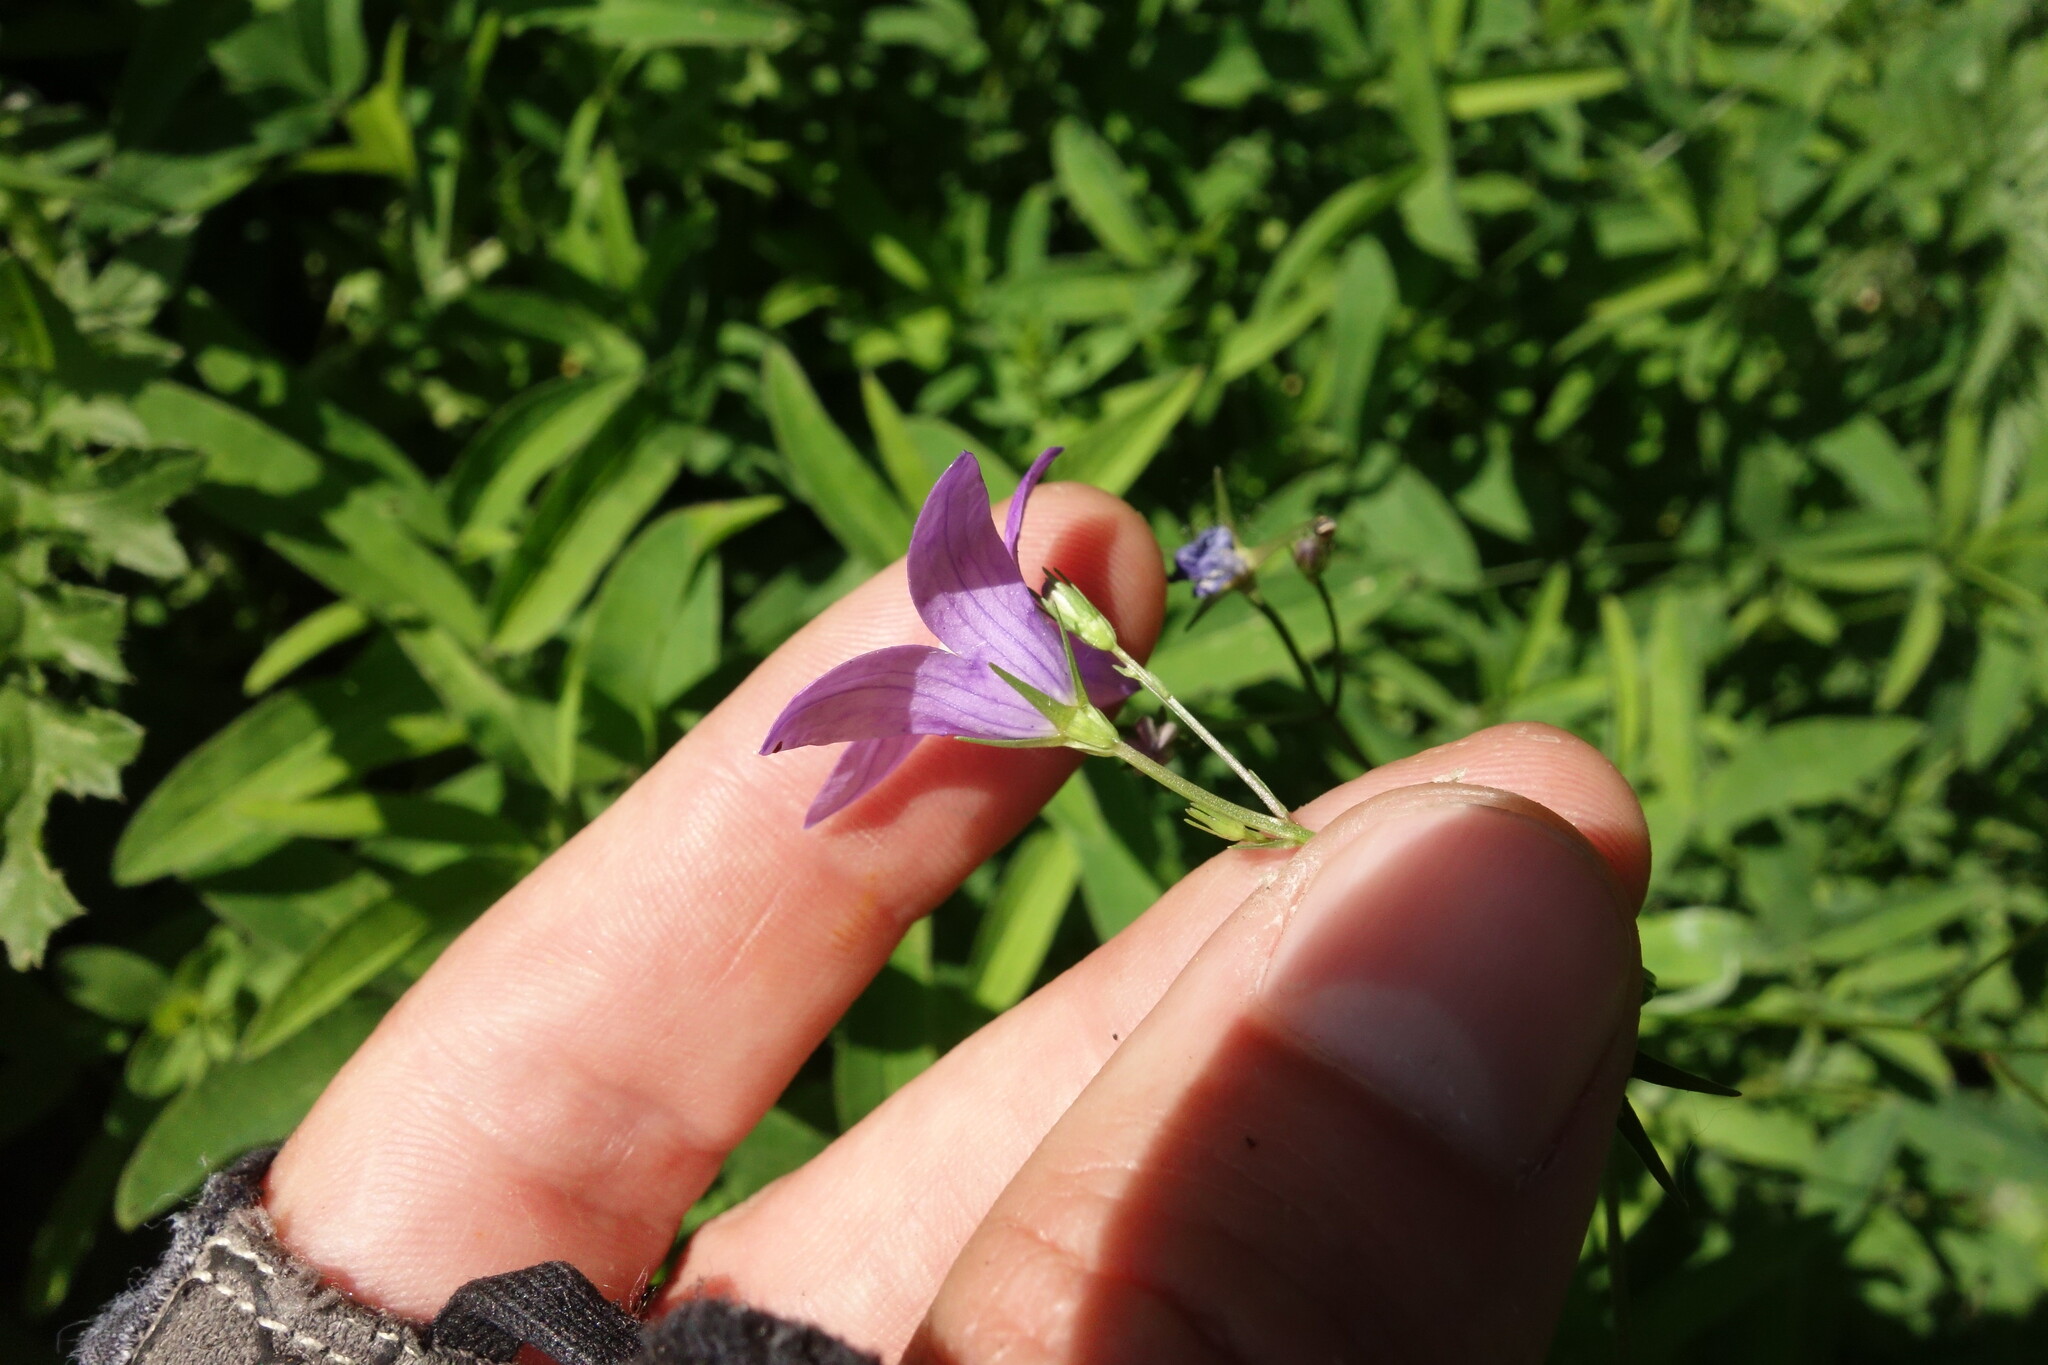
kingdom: Plantae
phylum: Tracheophyta
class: Magnoliopsida
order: Asterales
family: Campanulaceae
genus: Campanula
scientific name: Campanula patula
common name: Spreading bellflower
